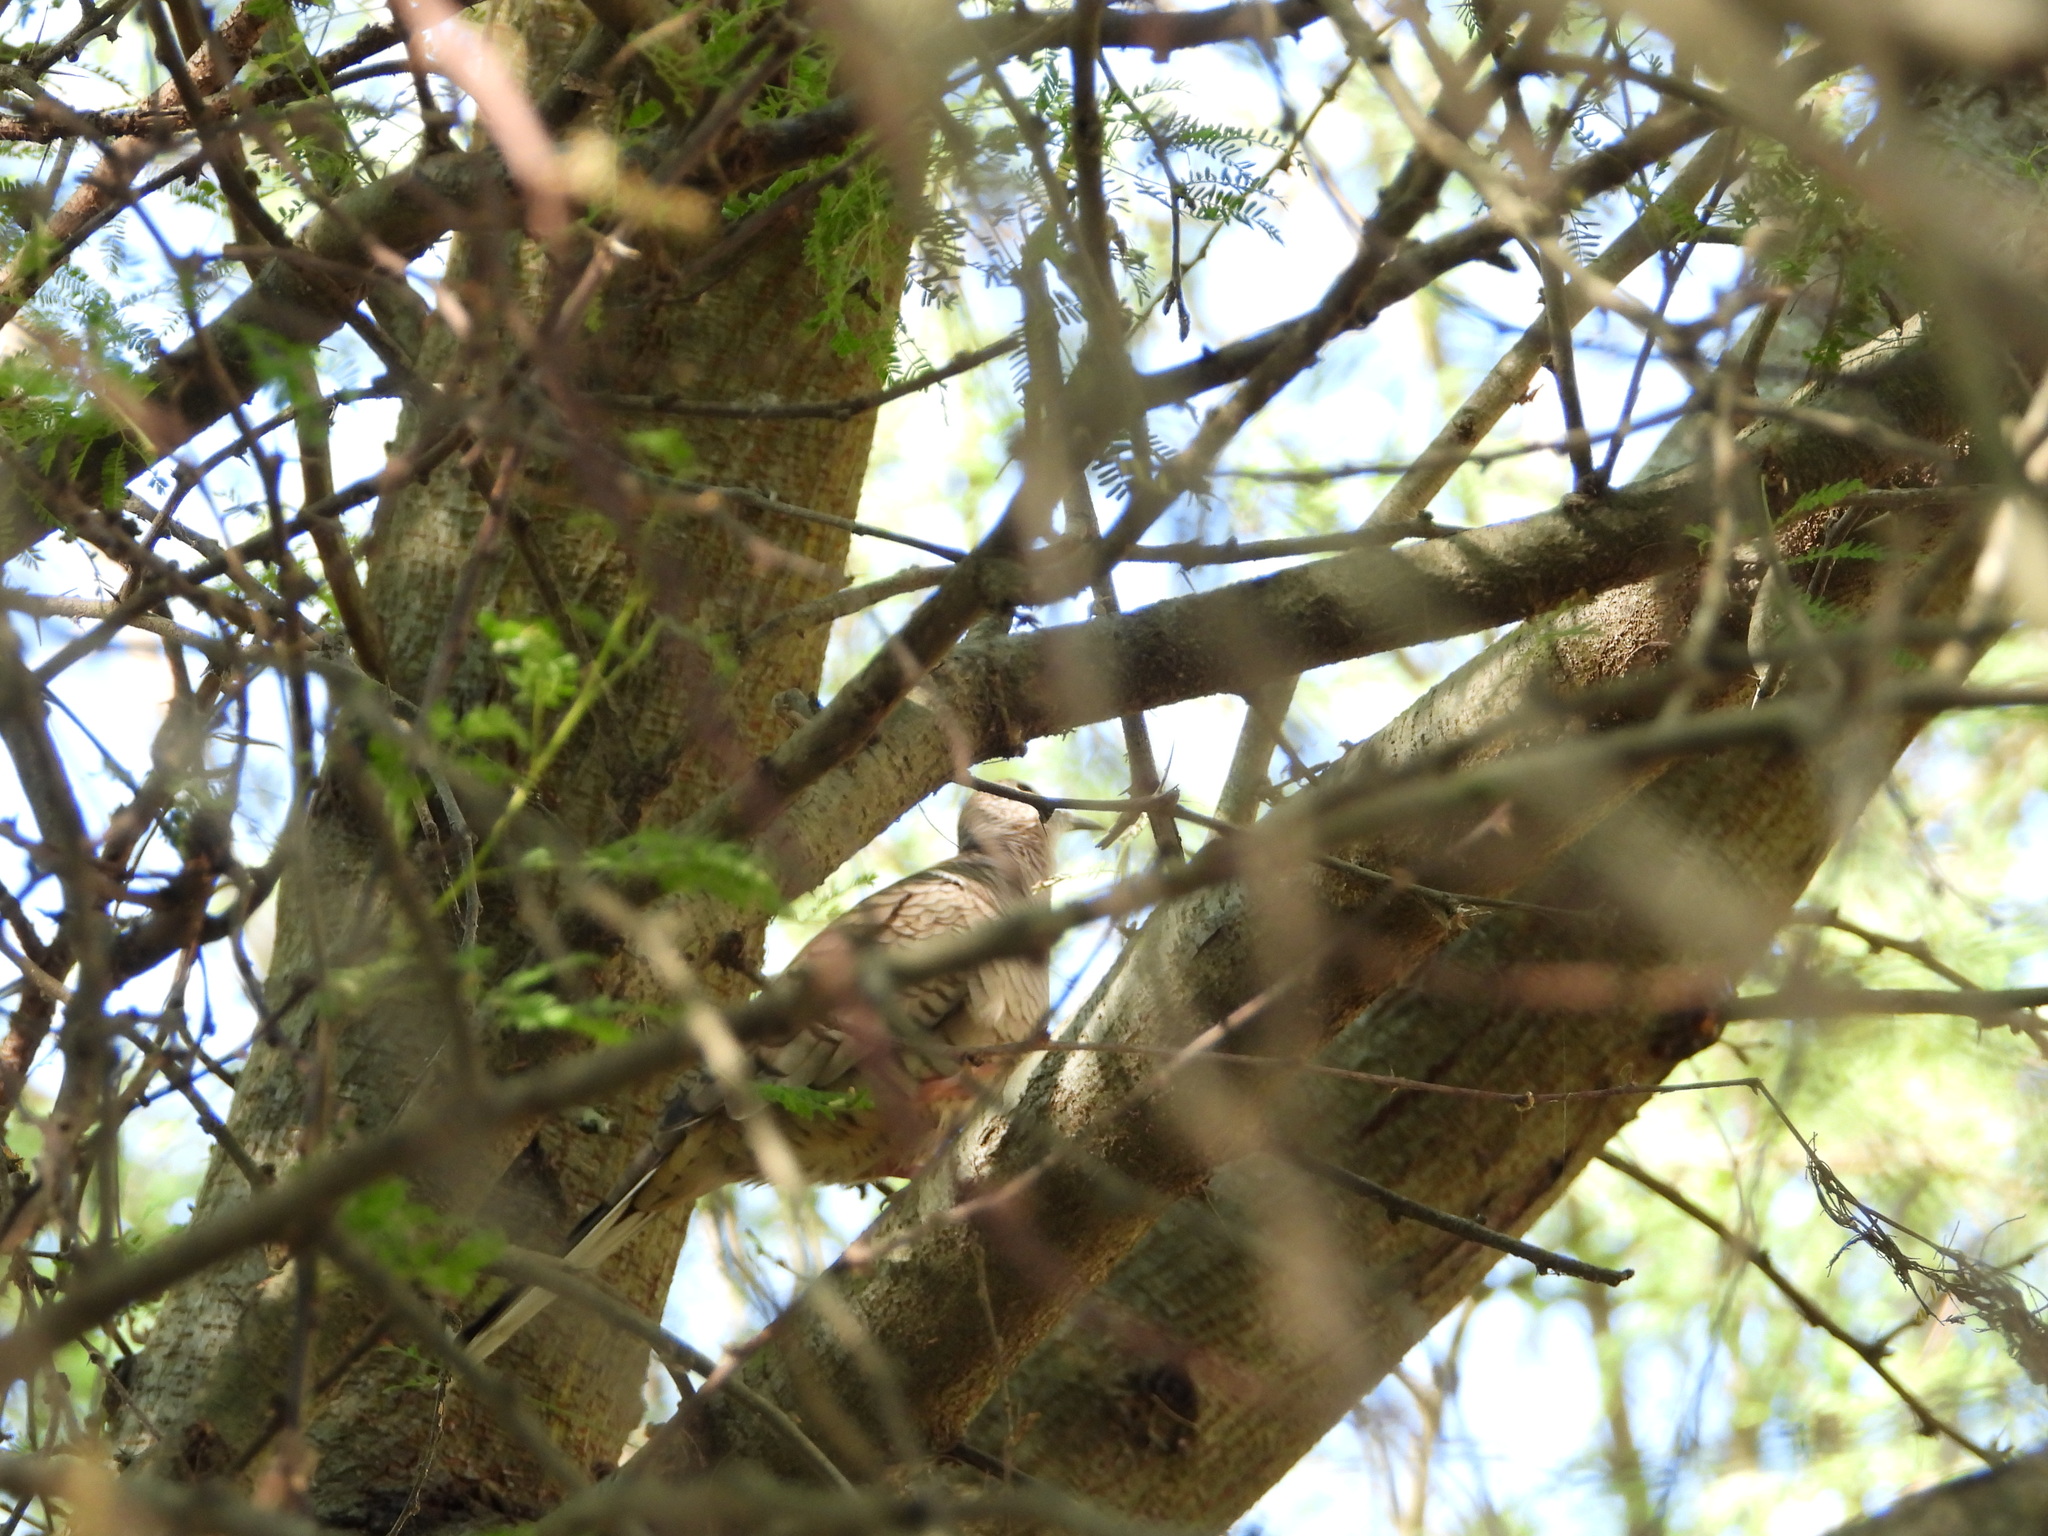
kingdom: Animalia
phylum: Chordata
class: Aves
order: Columbiformes
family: Columbidae
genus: Columbina
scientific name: Columbina inca
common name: Inca dove
